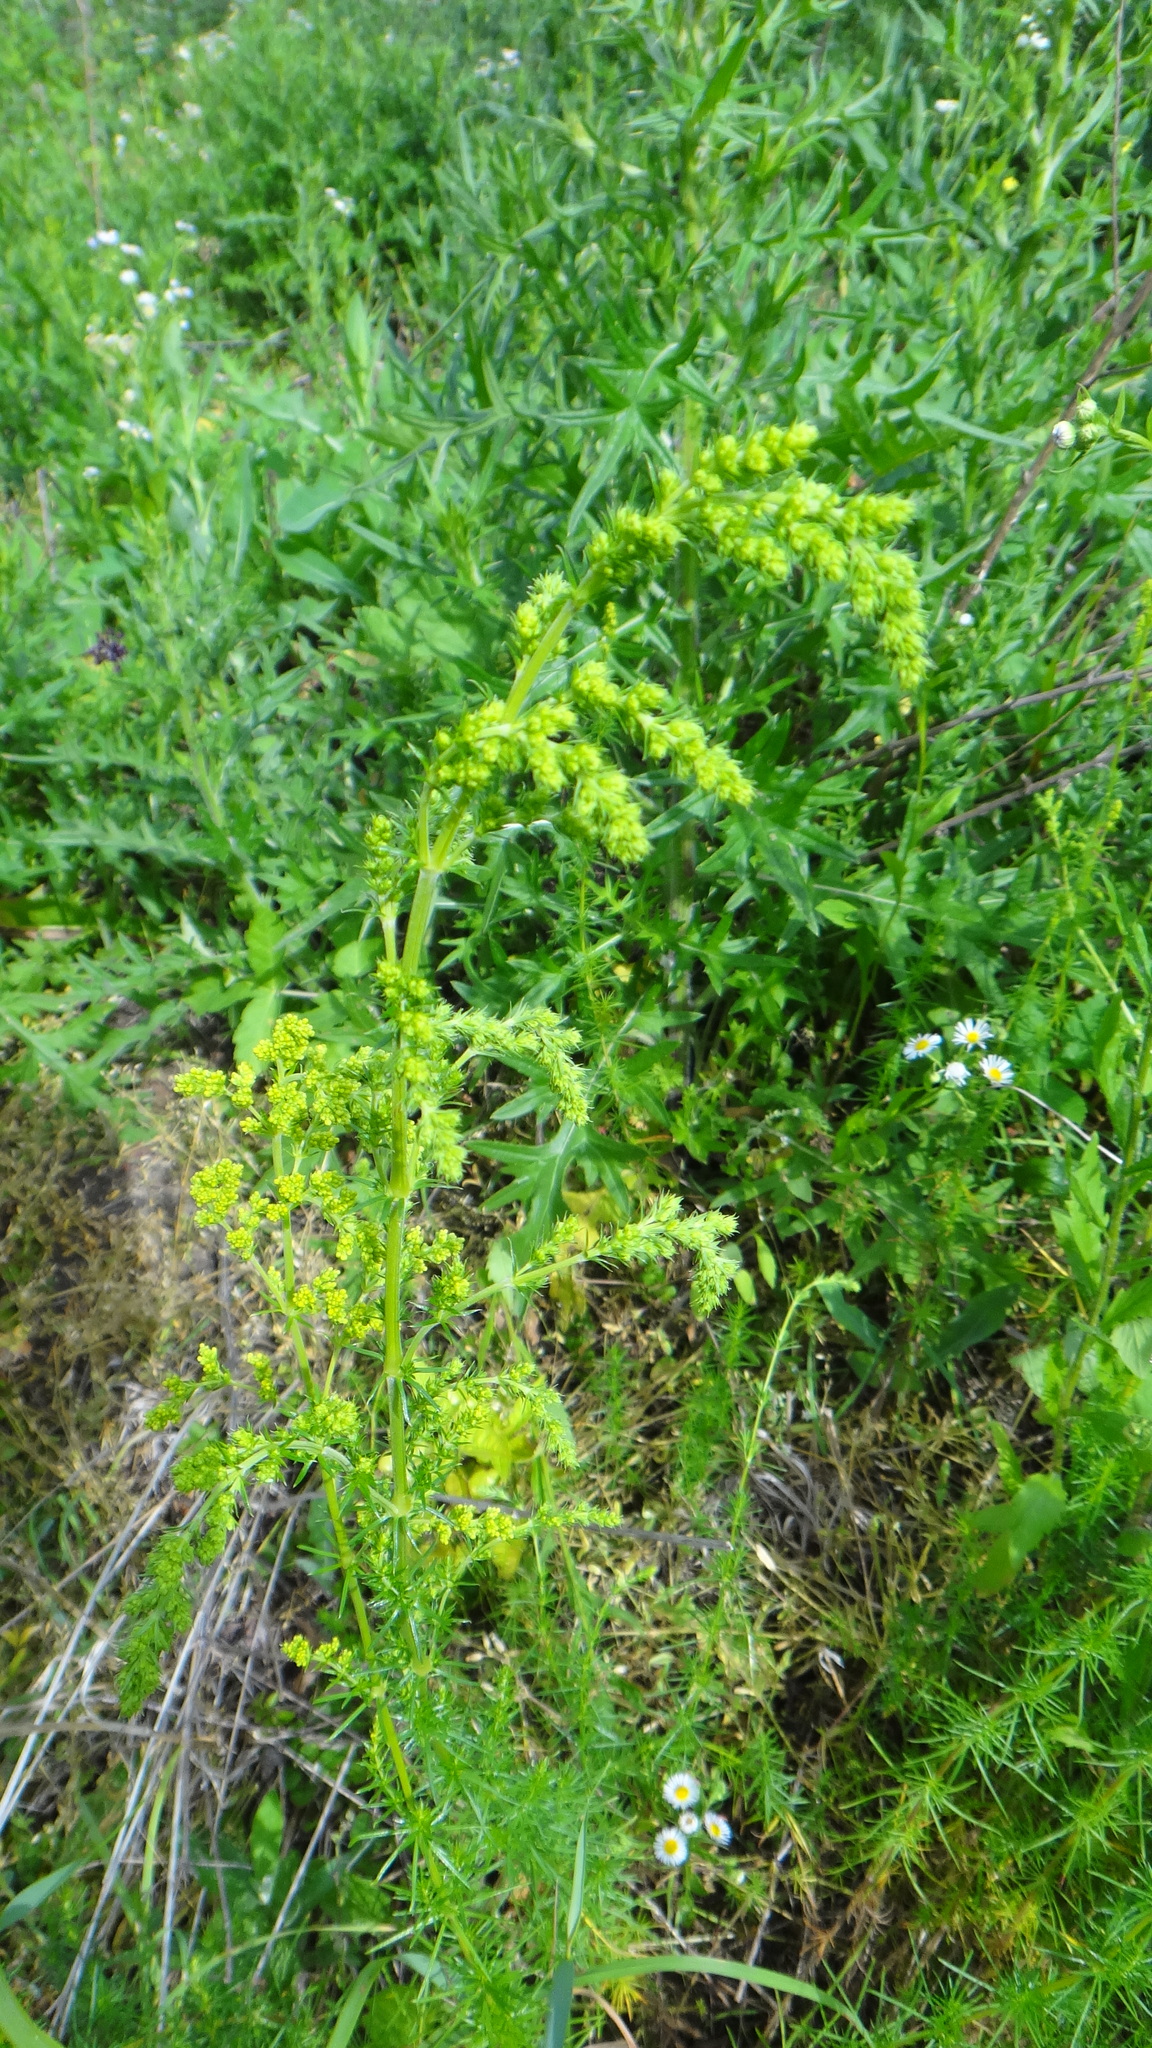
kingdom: Plantae
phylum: Tracheophyta
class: Magnoliopsida
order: Gentianales
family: Rubiaceae
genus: Galium
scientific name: Galium verum
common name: Lady's bedstraw
